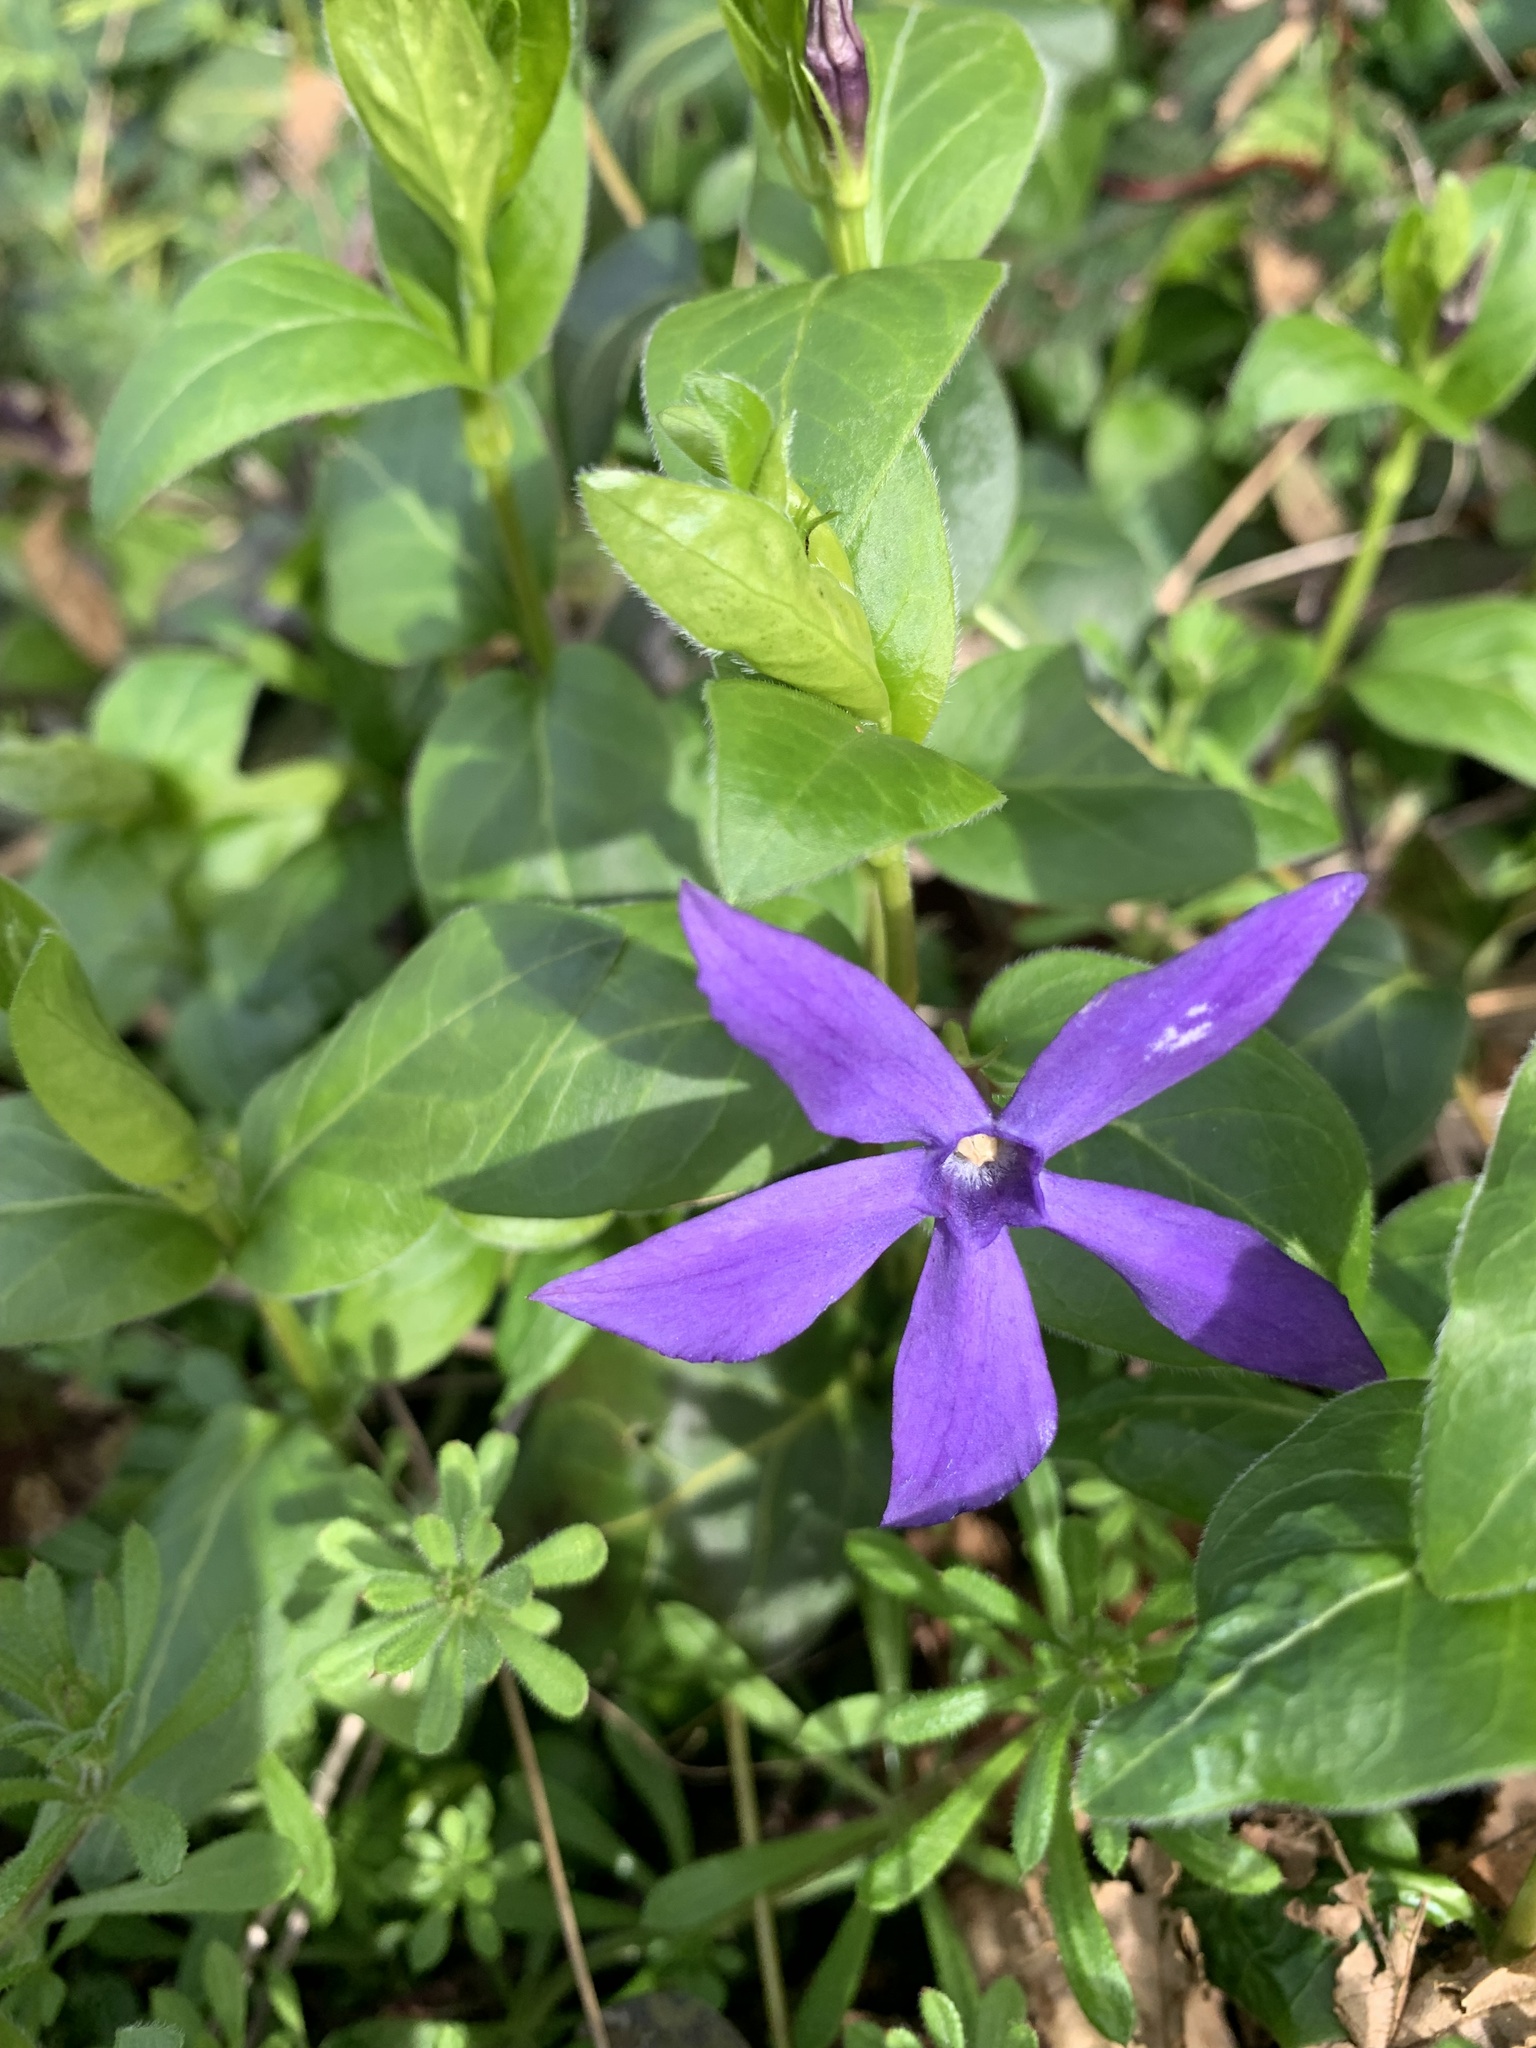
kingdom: Plantae
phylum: Tracheophyta
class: Magnoliopsida
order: Gentianales
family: Apocynaceae
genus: Vinca
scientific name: Vinca major
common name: Greater periwinkle
